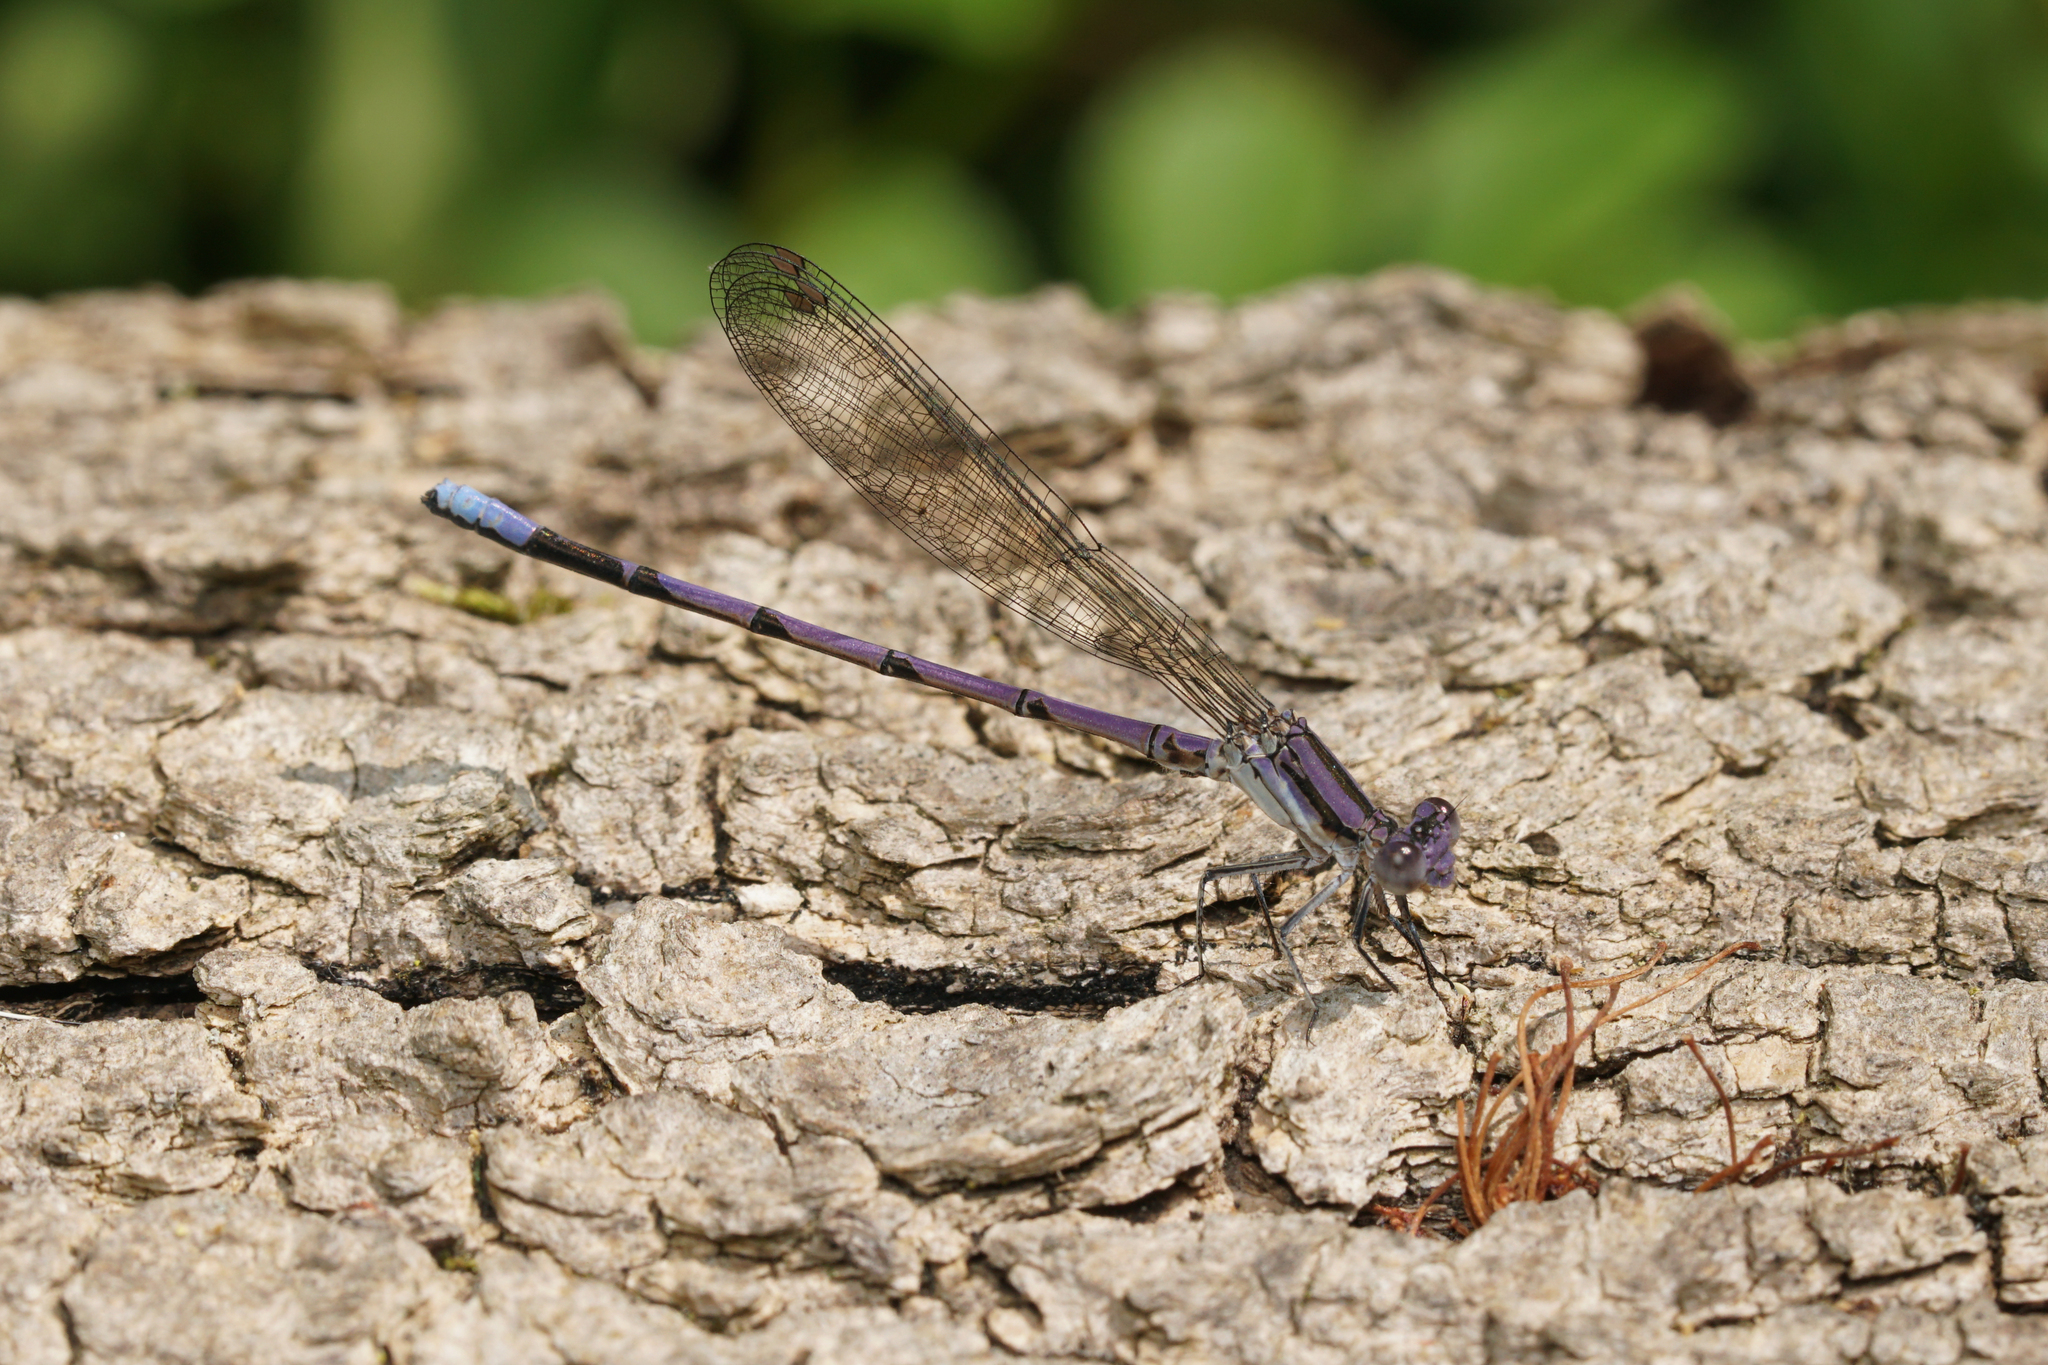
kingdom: Animalia
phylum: Arthropoda
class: Insecta
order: Odonata
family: Coenagrionidae
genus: Argia
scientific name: Argia fumipennis
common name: Variable dancer
